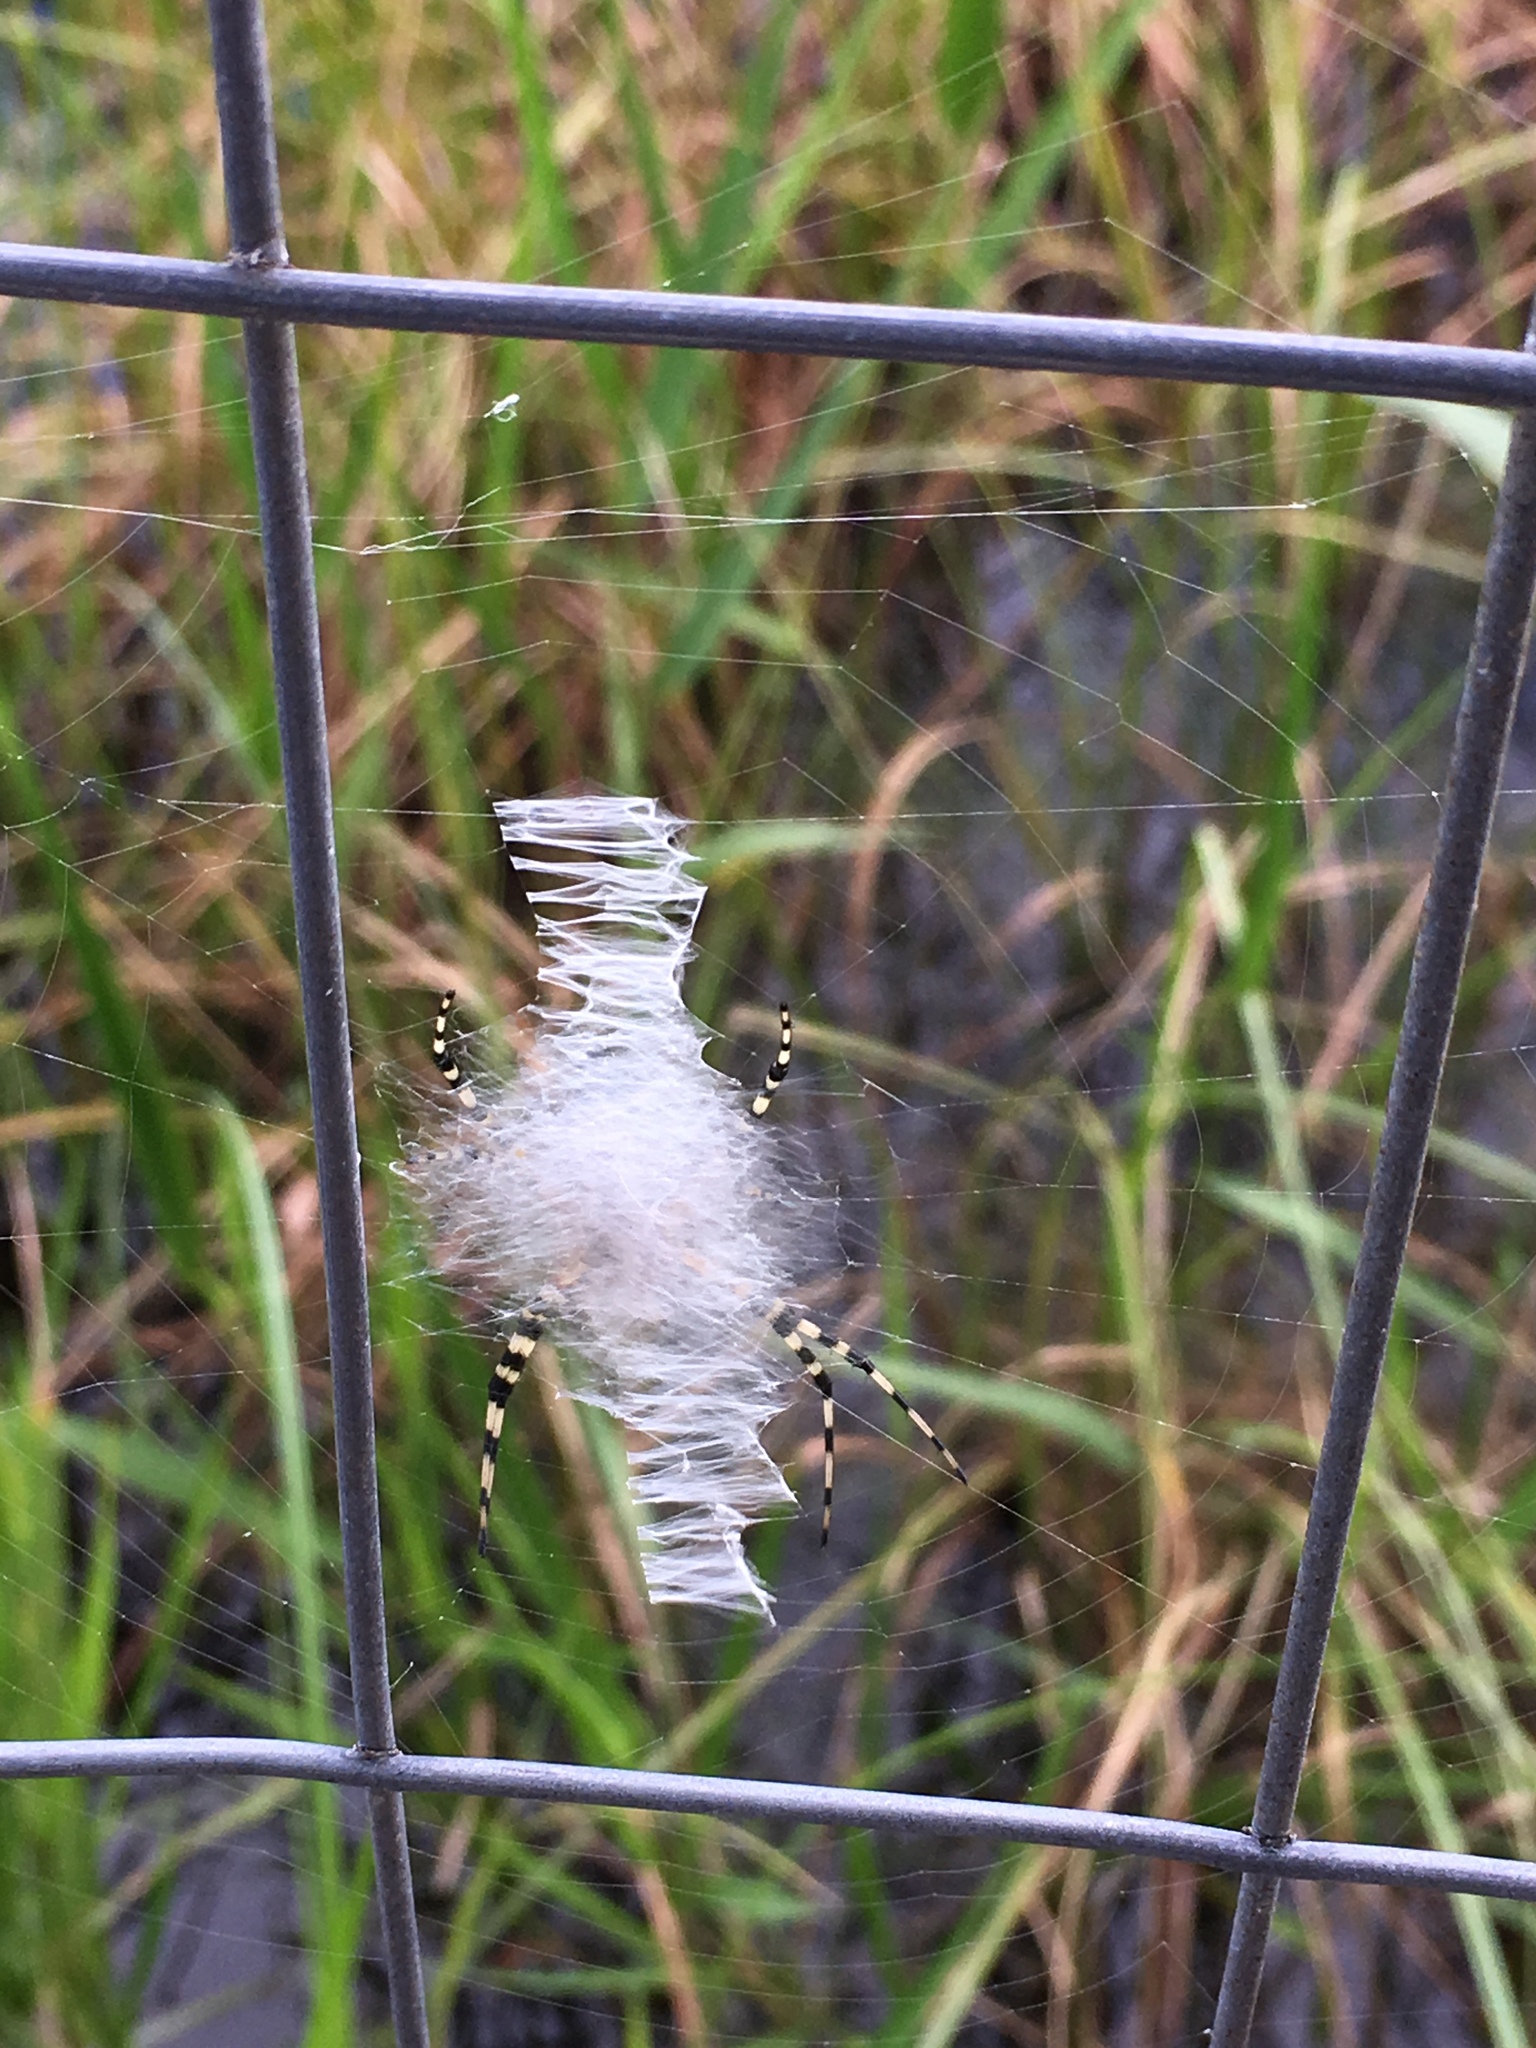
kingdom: Animalia
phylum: Arthropoda
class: Arachnida
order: Araneae
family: Araneidae
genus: Argiope
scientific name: Argiope aurantia
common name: Orb weavers
